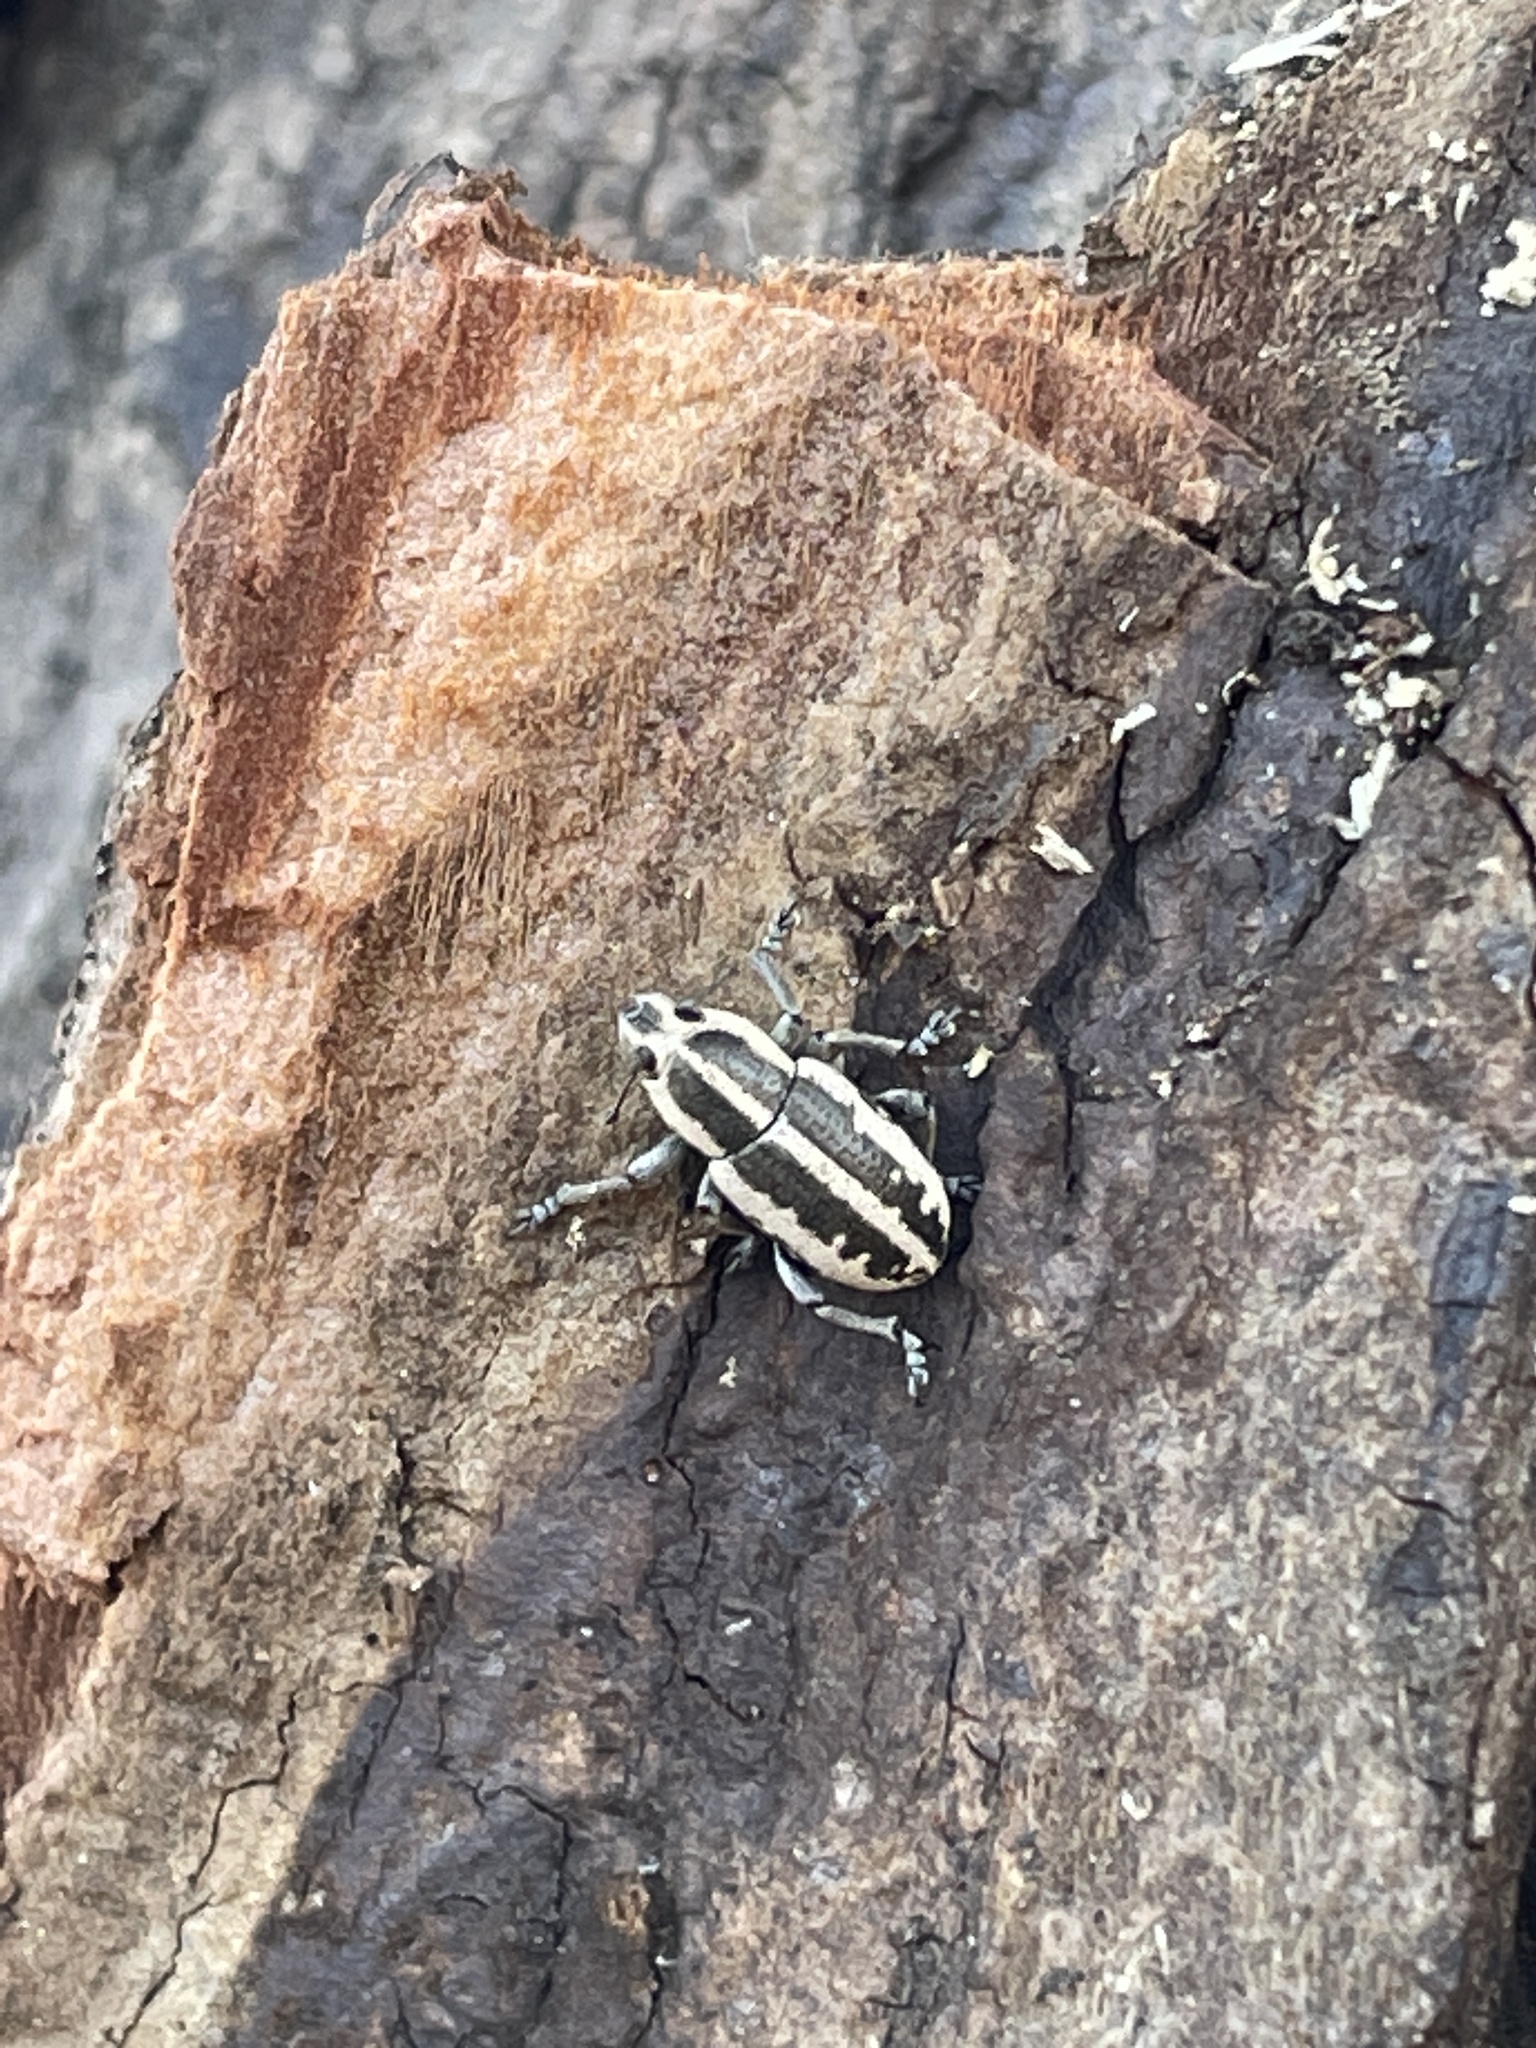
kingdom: Animalia
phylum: Arthropoda
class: Insecta
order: Coleoptera
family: Curculionidae
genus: Eudiagogus
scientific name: Eudiagogus rosenschoeldi
